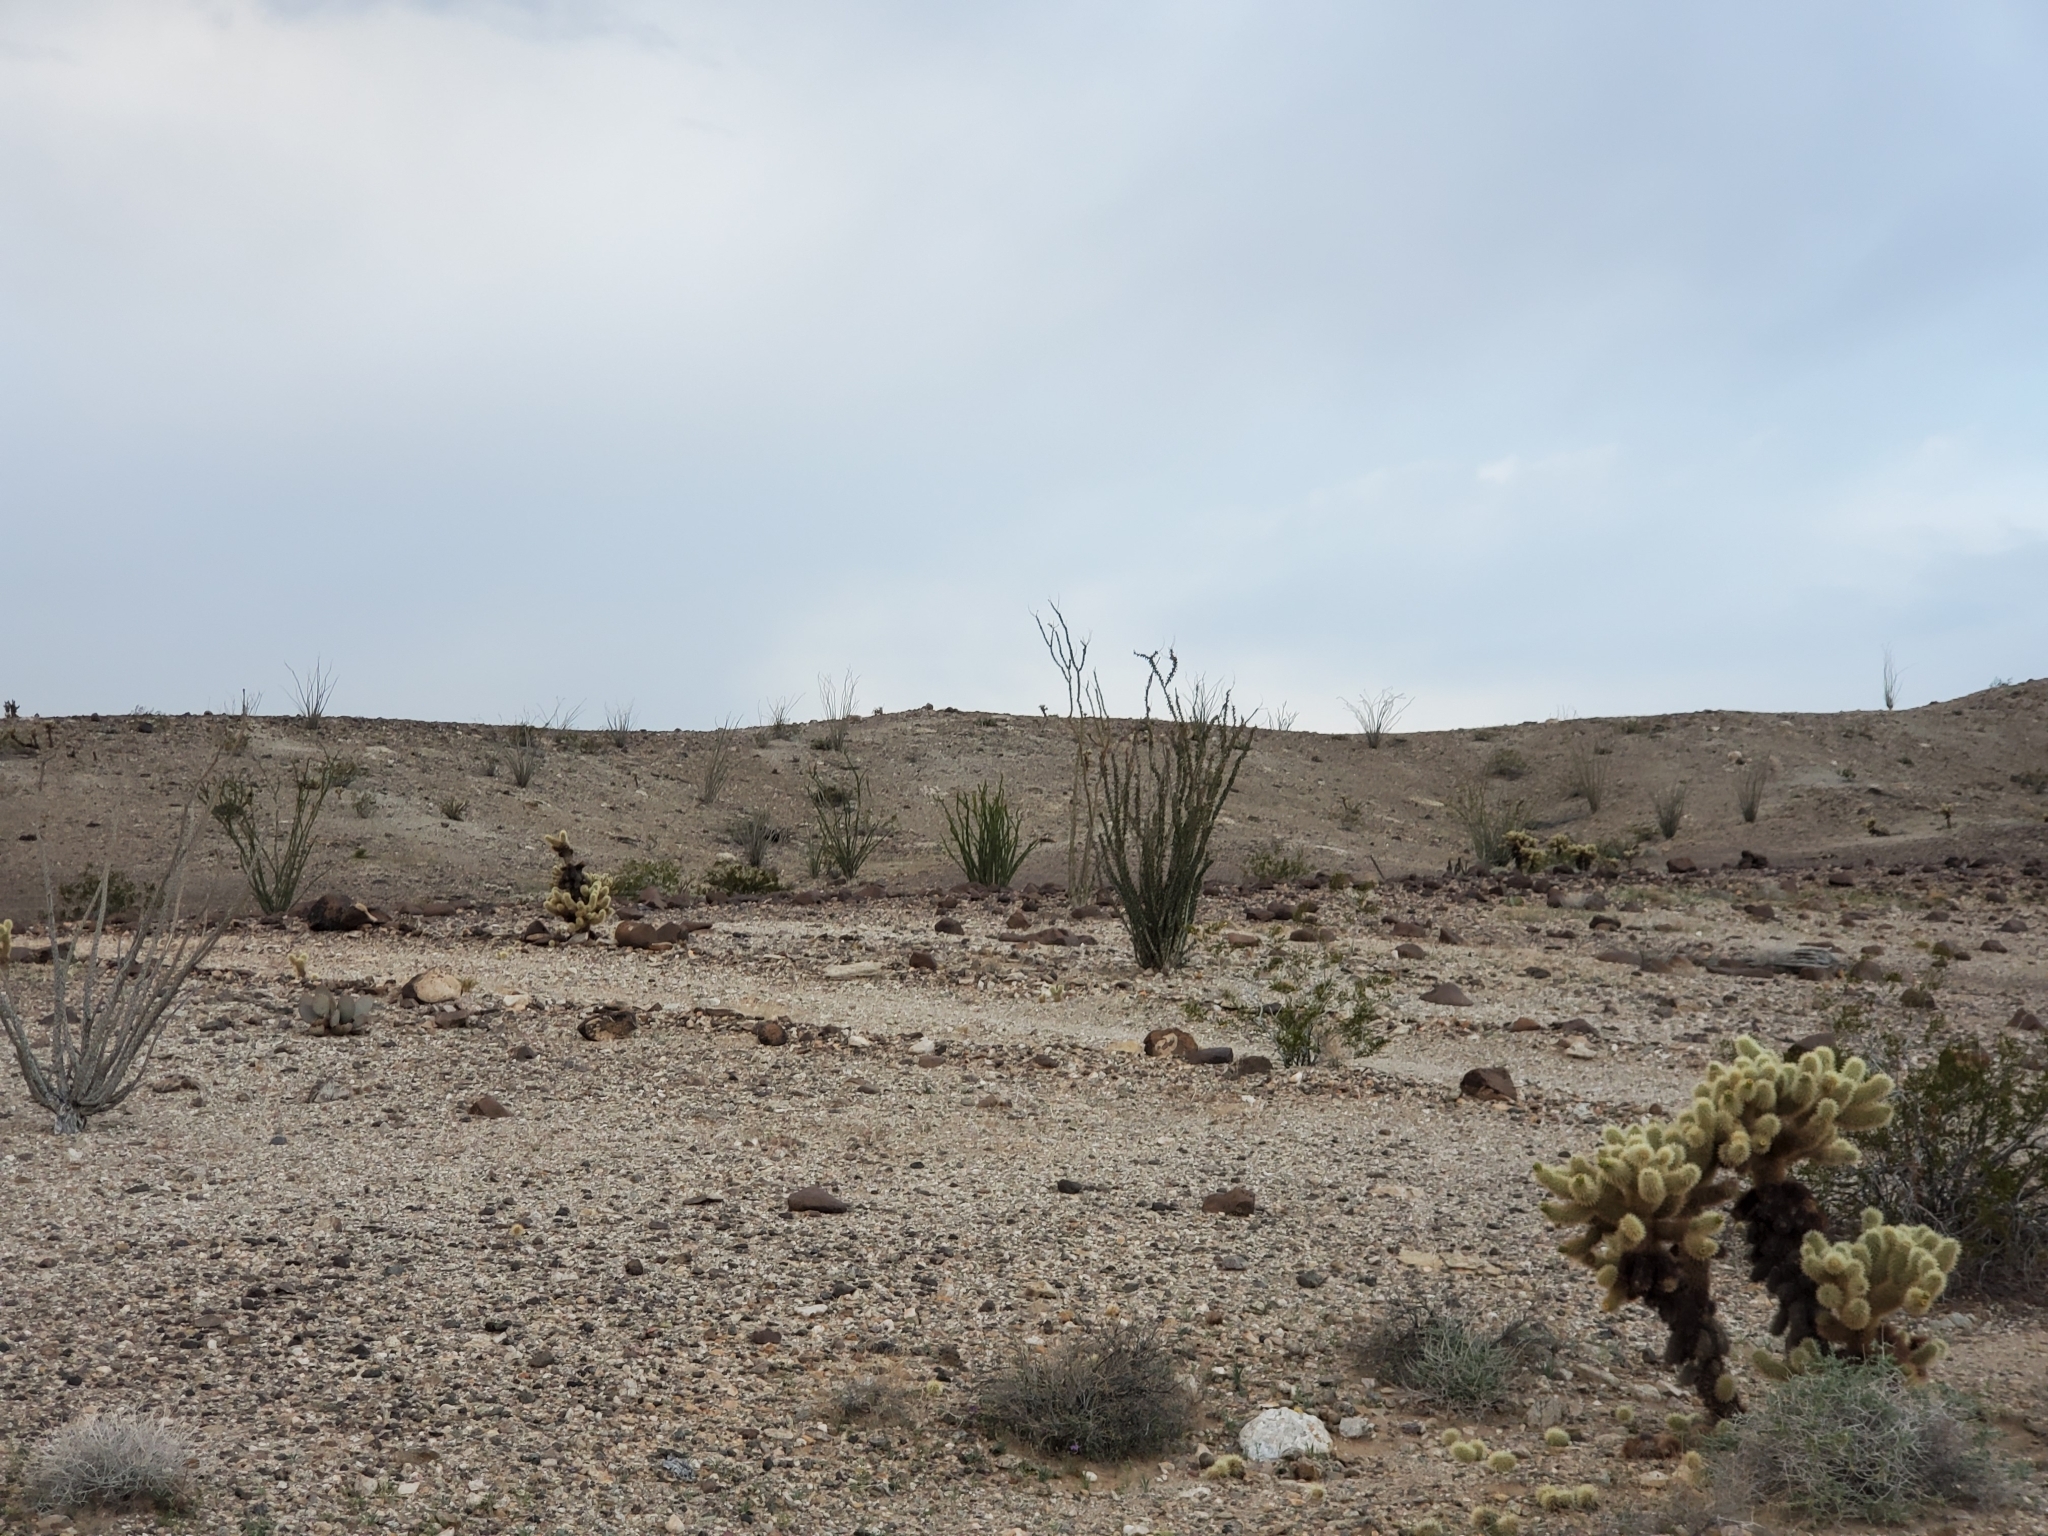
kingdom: Plantae
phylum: Tracheophyta
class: Magnoliopsida
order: Ericales
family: Fouquieriaceae
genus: Fouquieria
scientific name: Fouquieria splendens
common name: Vine-cactus
